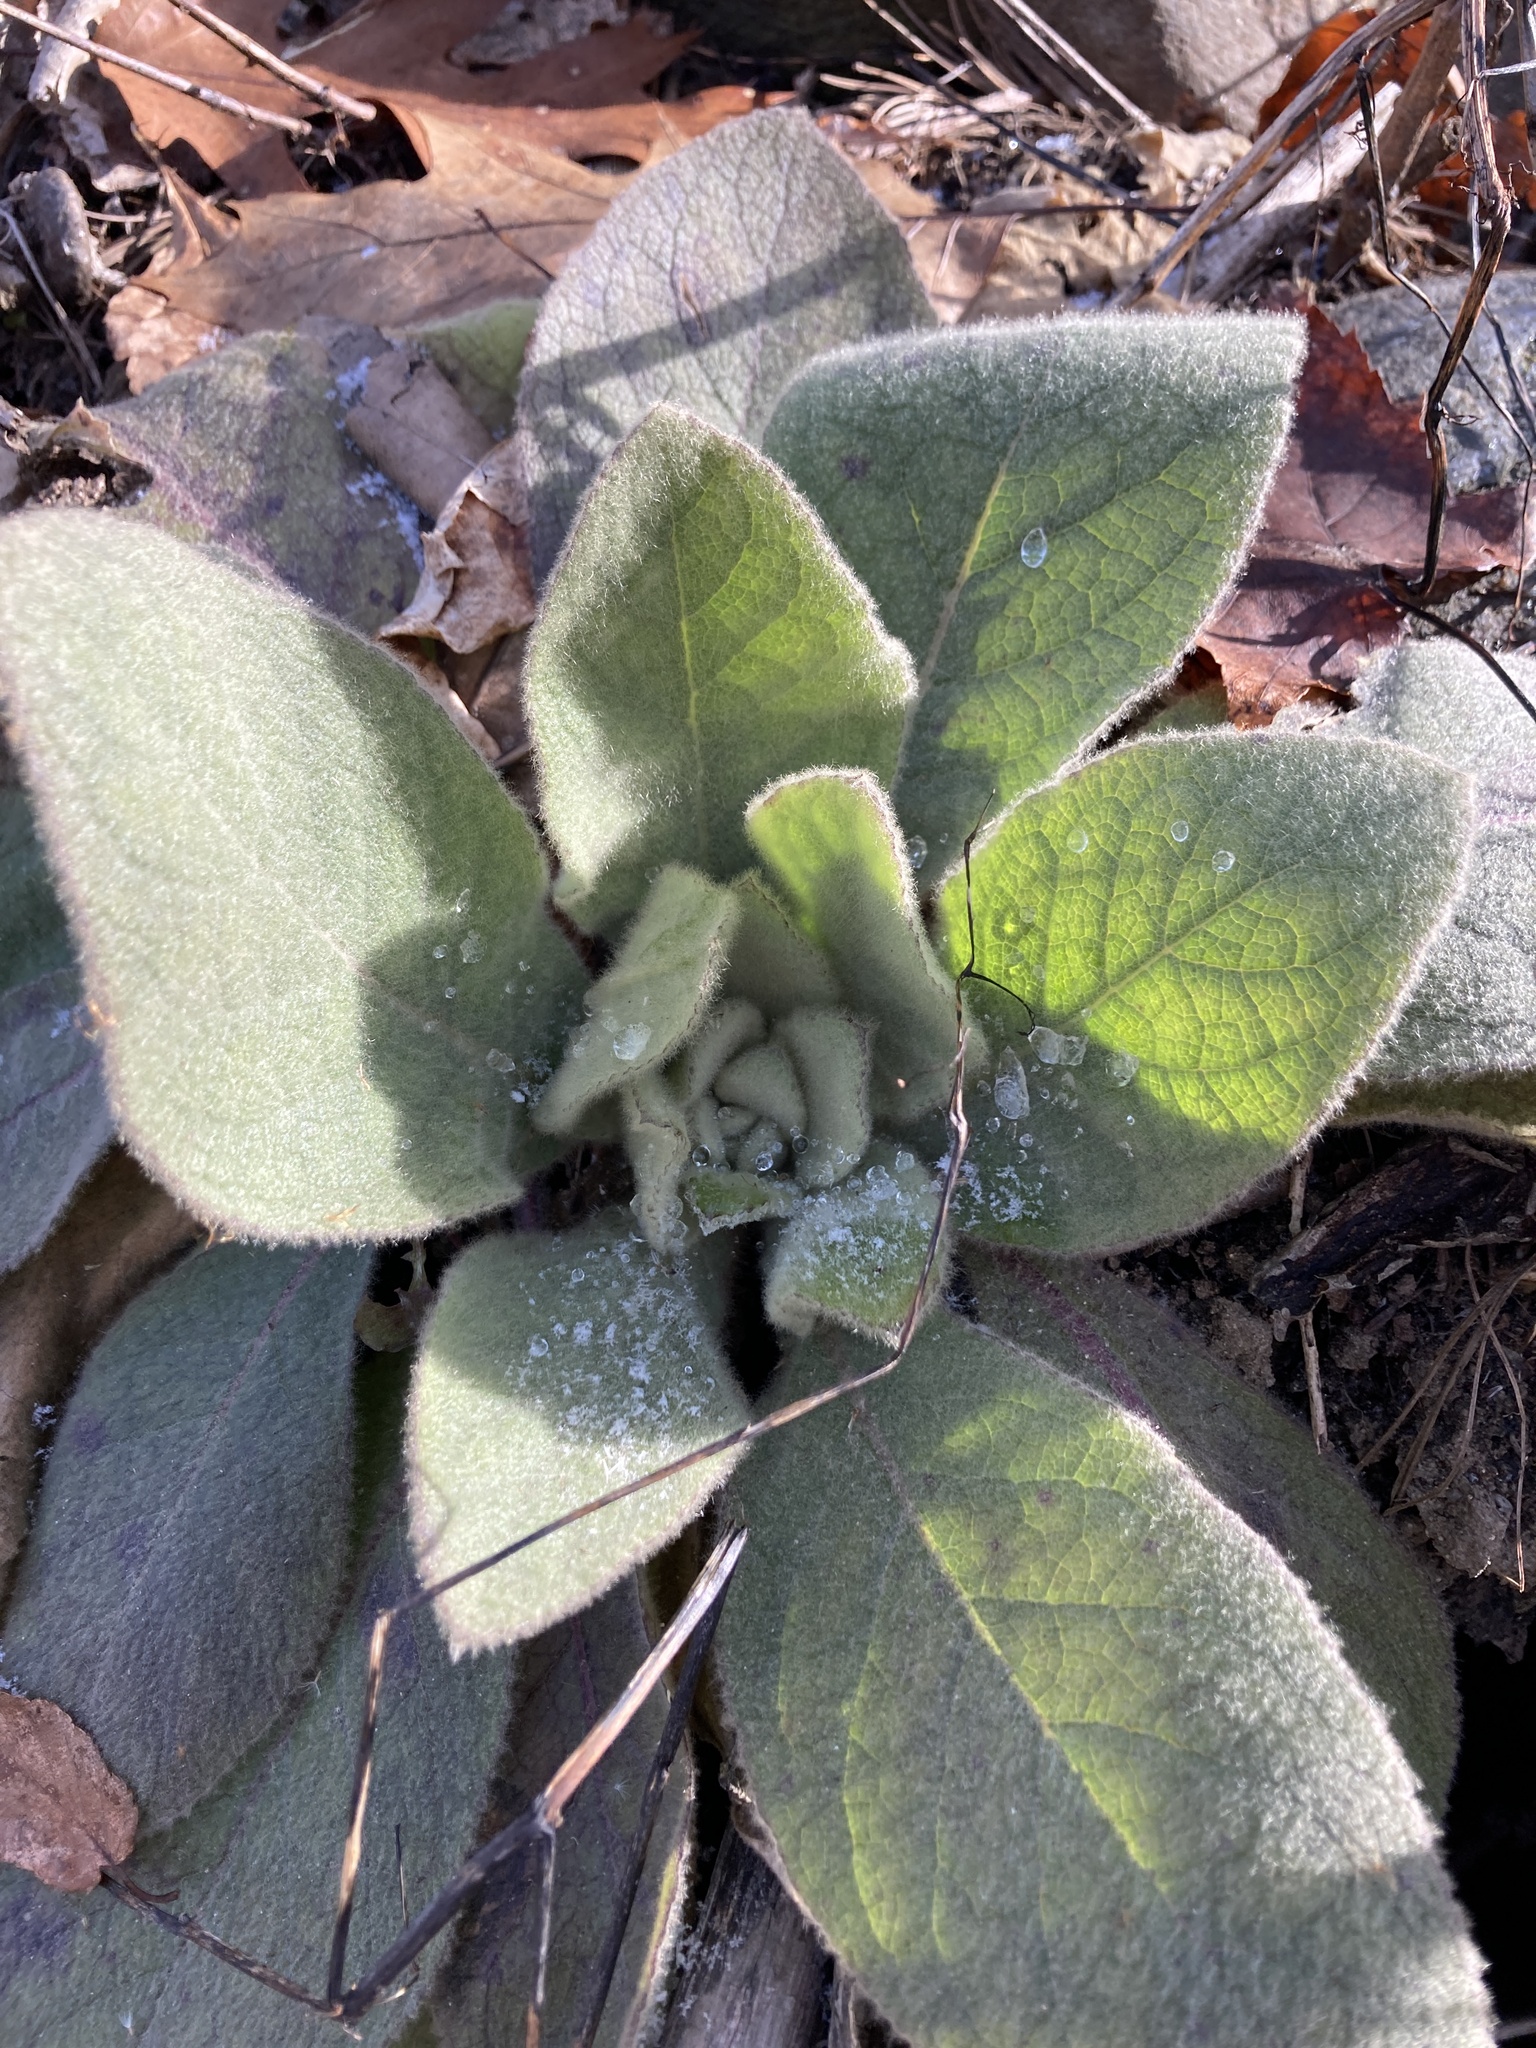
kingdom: Plantae
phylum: Tracheophyta
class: Magnoliopsida
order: Lamiales
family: Scrophulariaceae
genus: Verbascum
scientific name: Verbascum thapsus
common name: Common mullein
